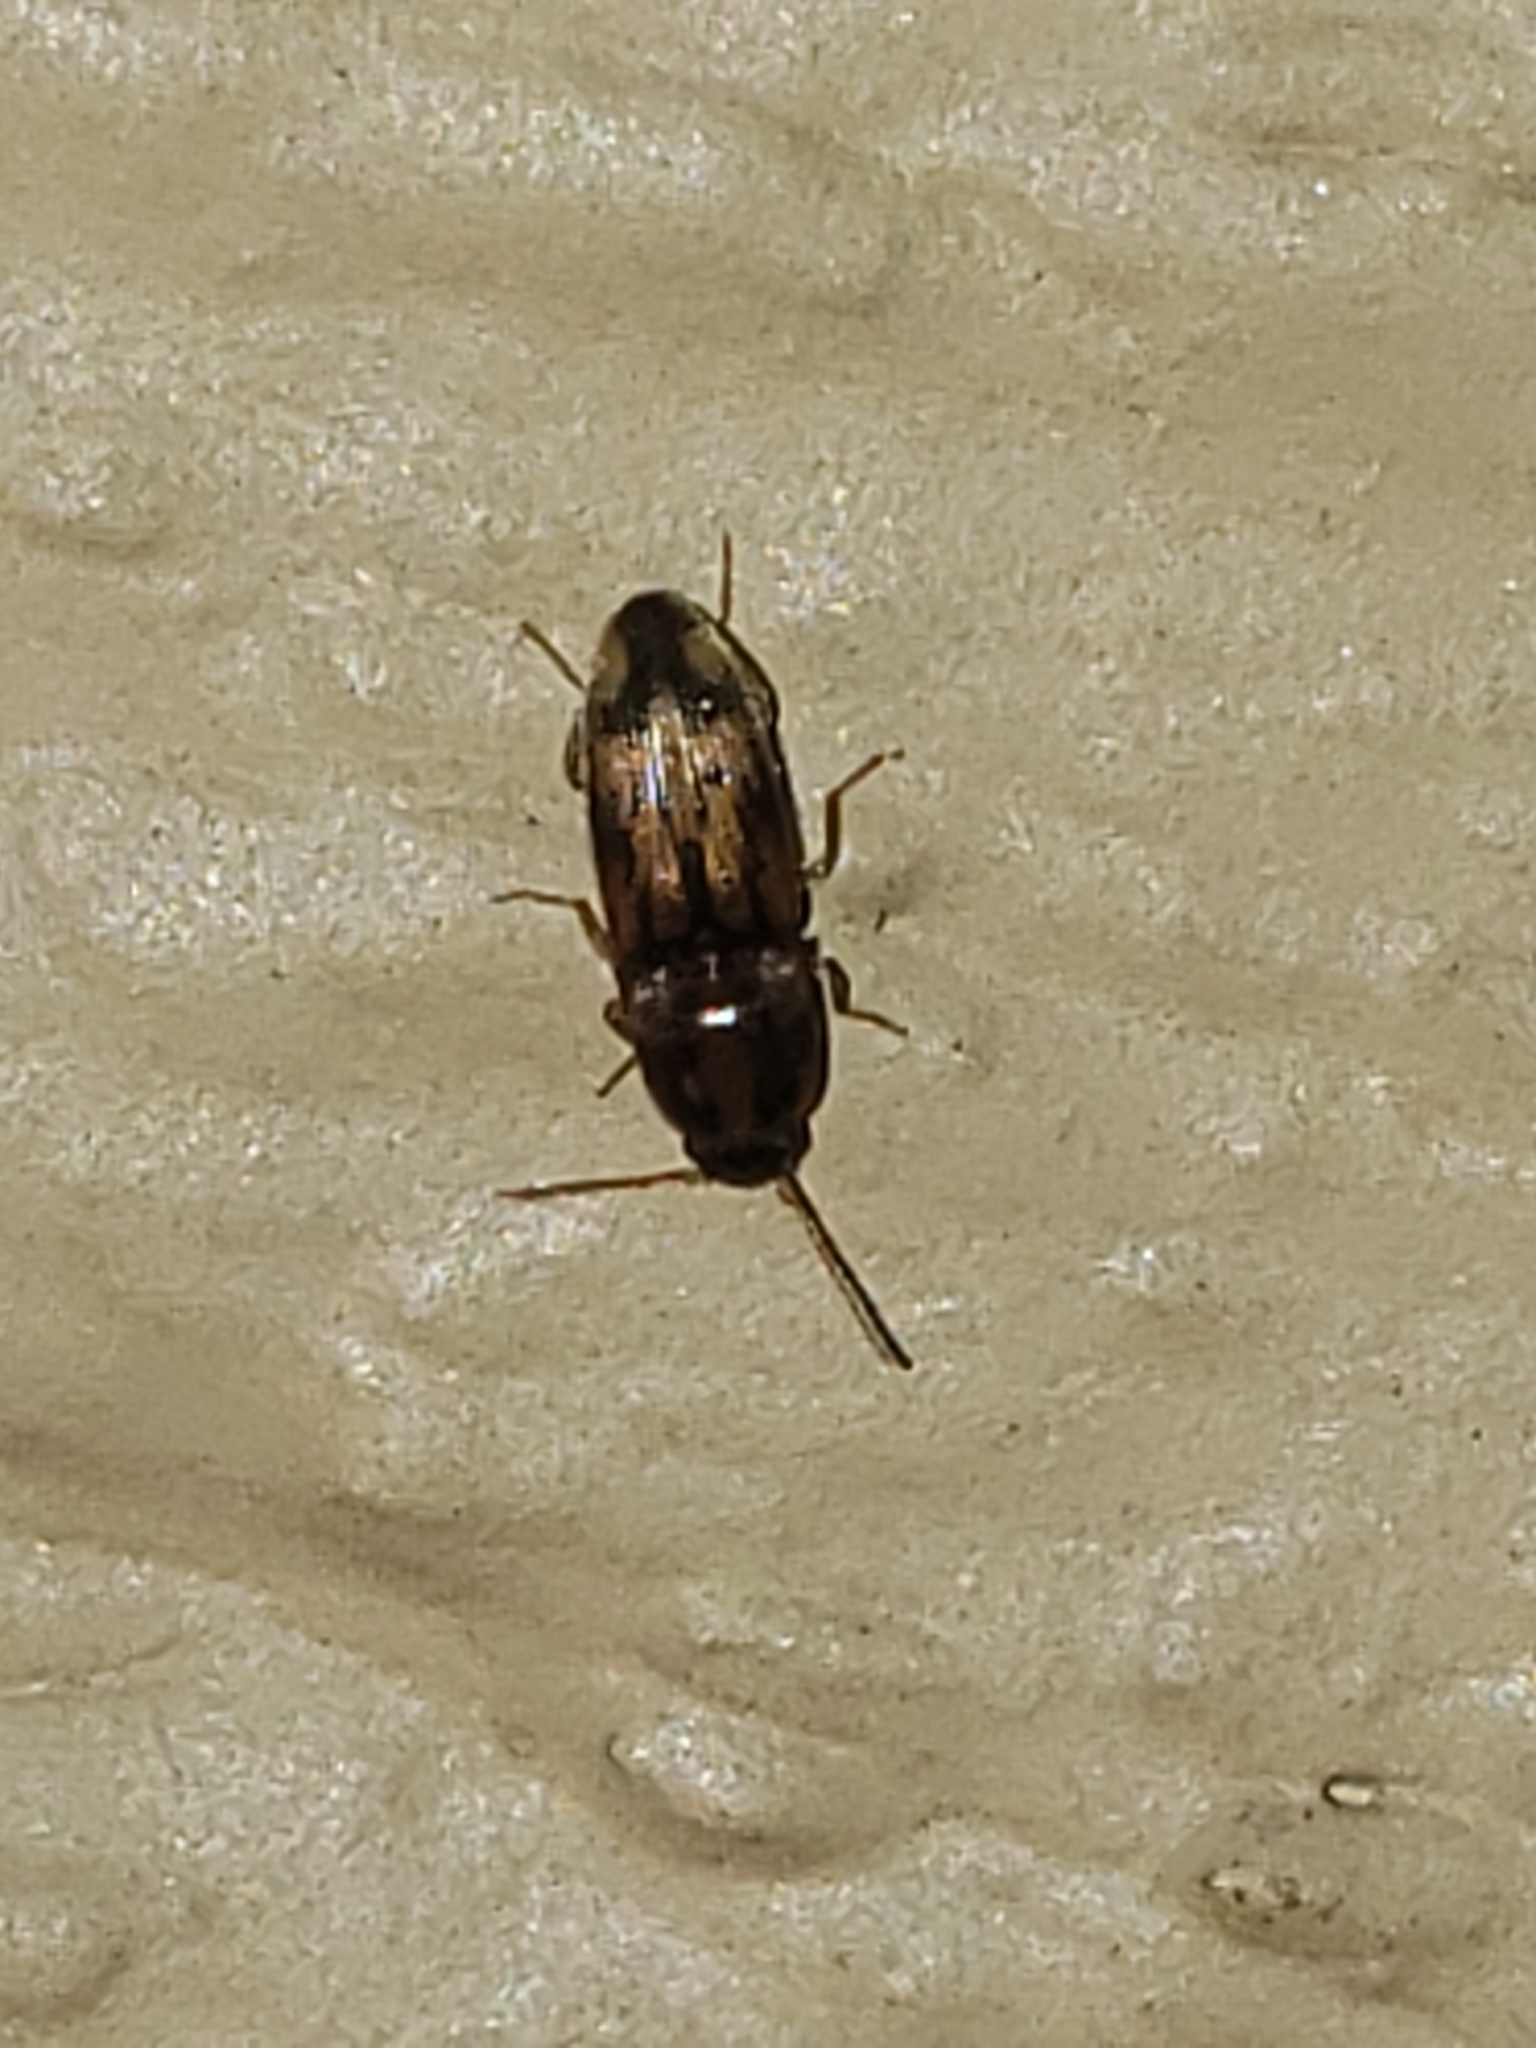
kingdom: Animalia
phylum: Arthropoda
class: Insecta
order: Coleoptera
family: Elateridae
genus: Monocrepidius
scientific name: Monocrepidius bellus
